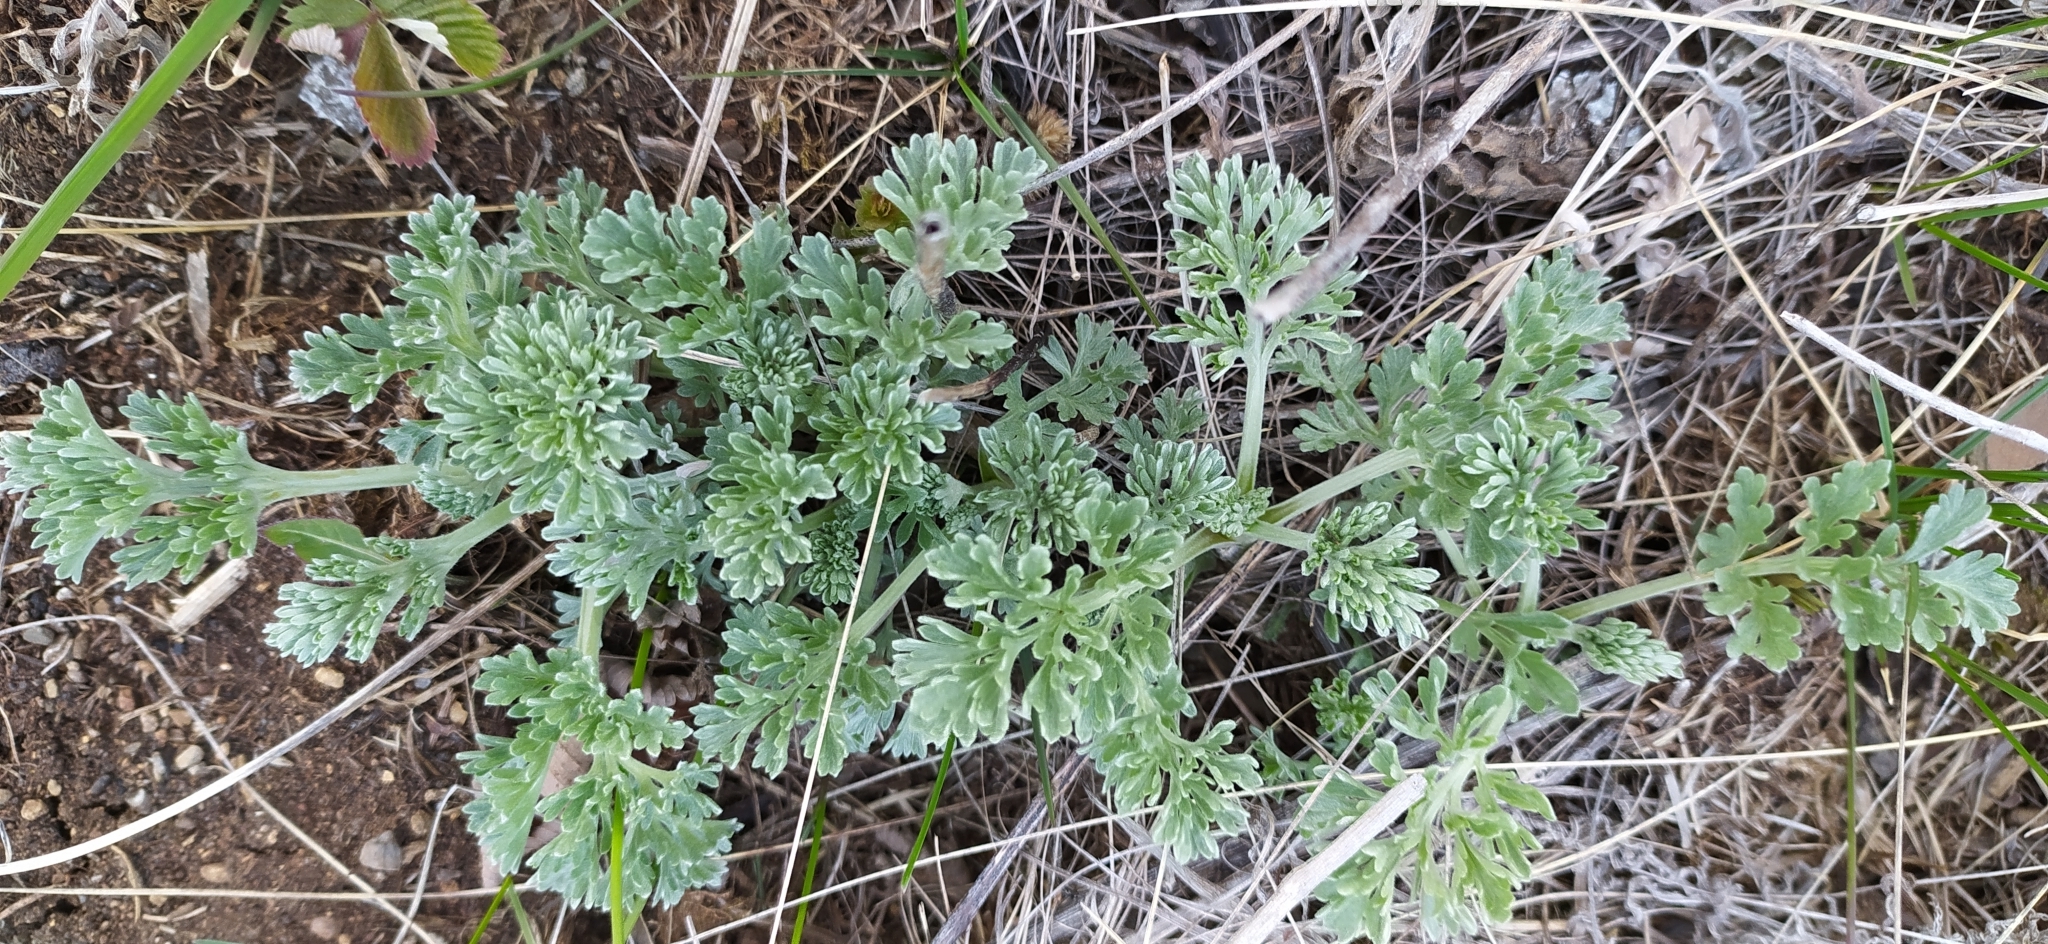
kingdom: Plantae
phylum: Tracheophyta
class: Magnoliopsida
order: Asterales
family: Asteraceae
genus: Artemisia
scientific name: Artemisia absinthium
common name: Wormwood
